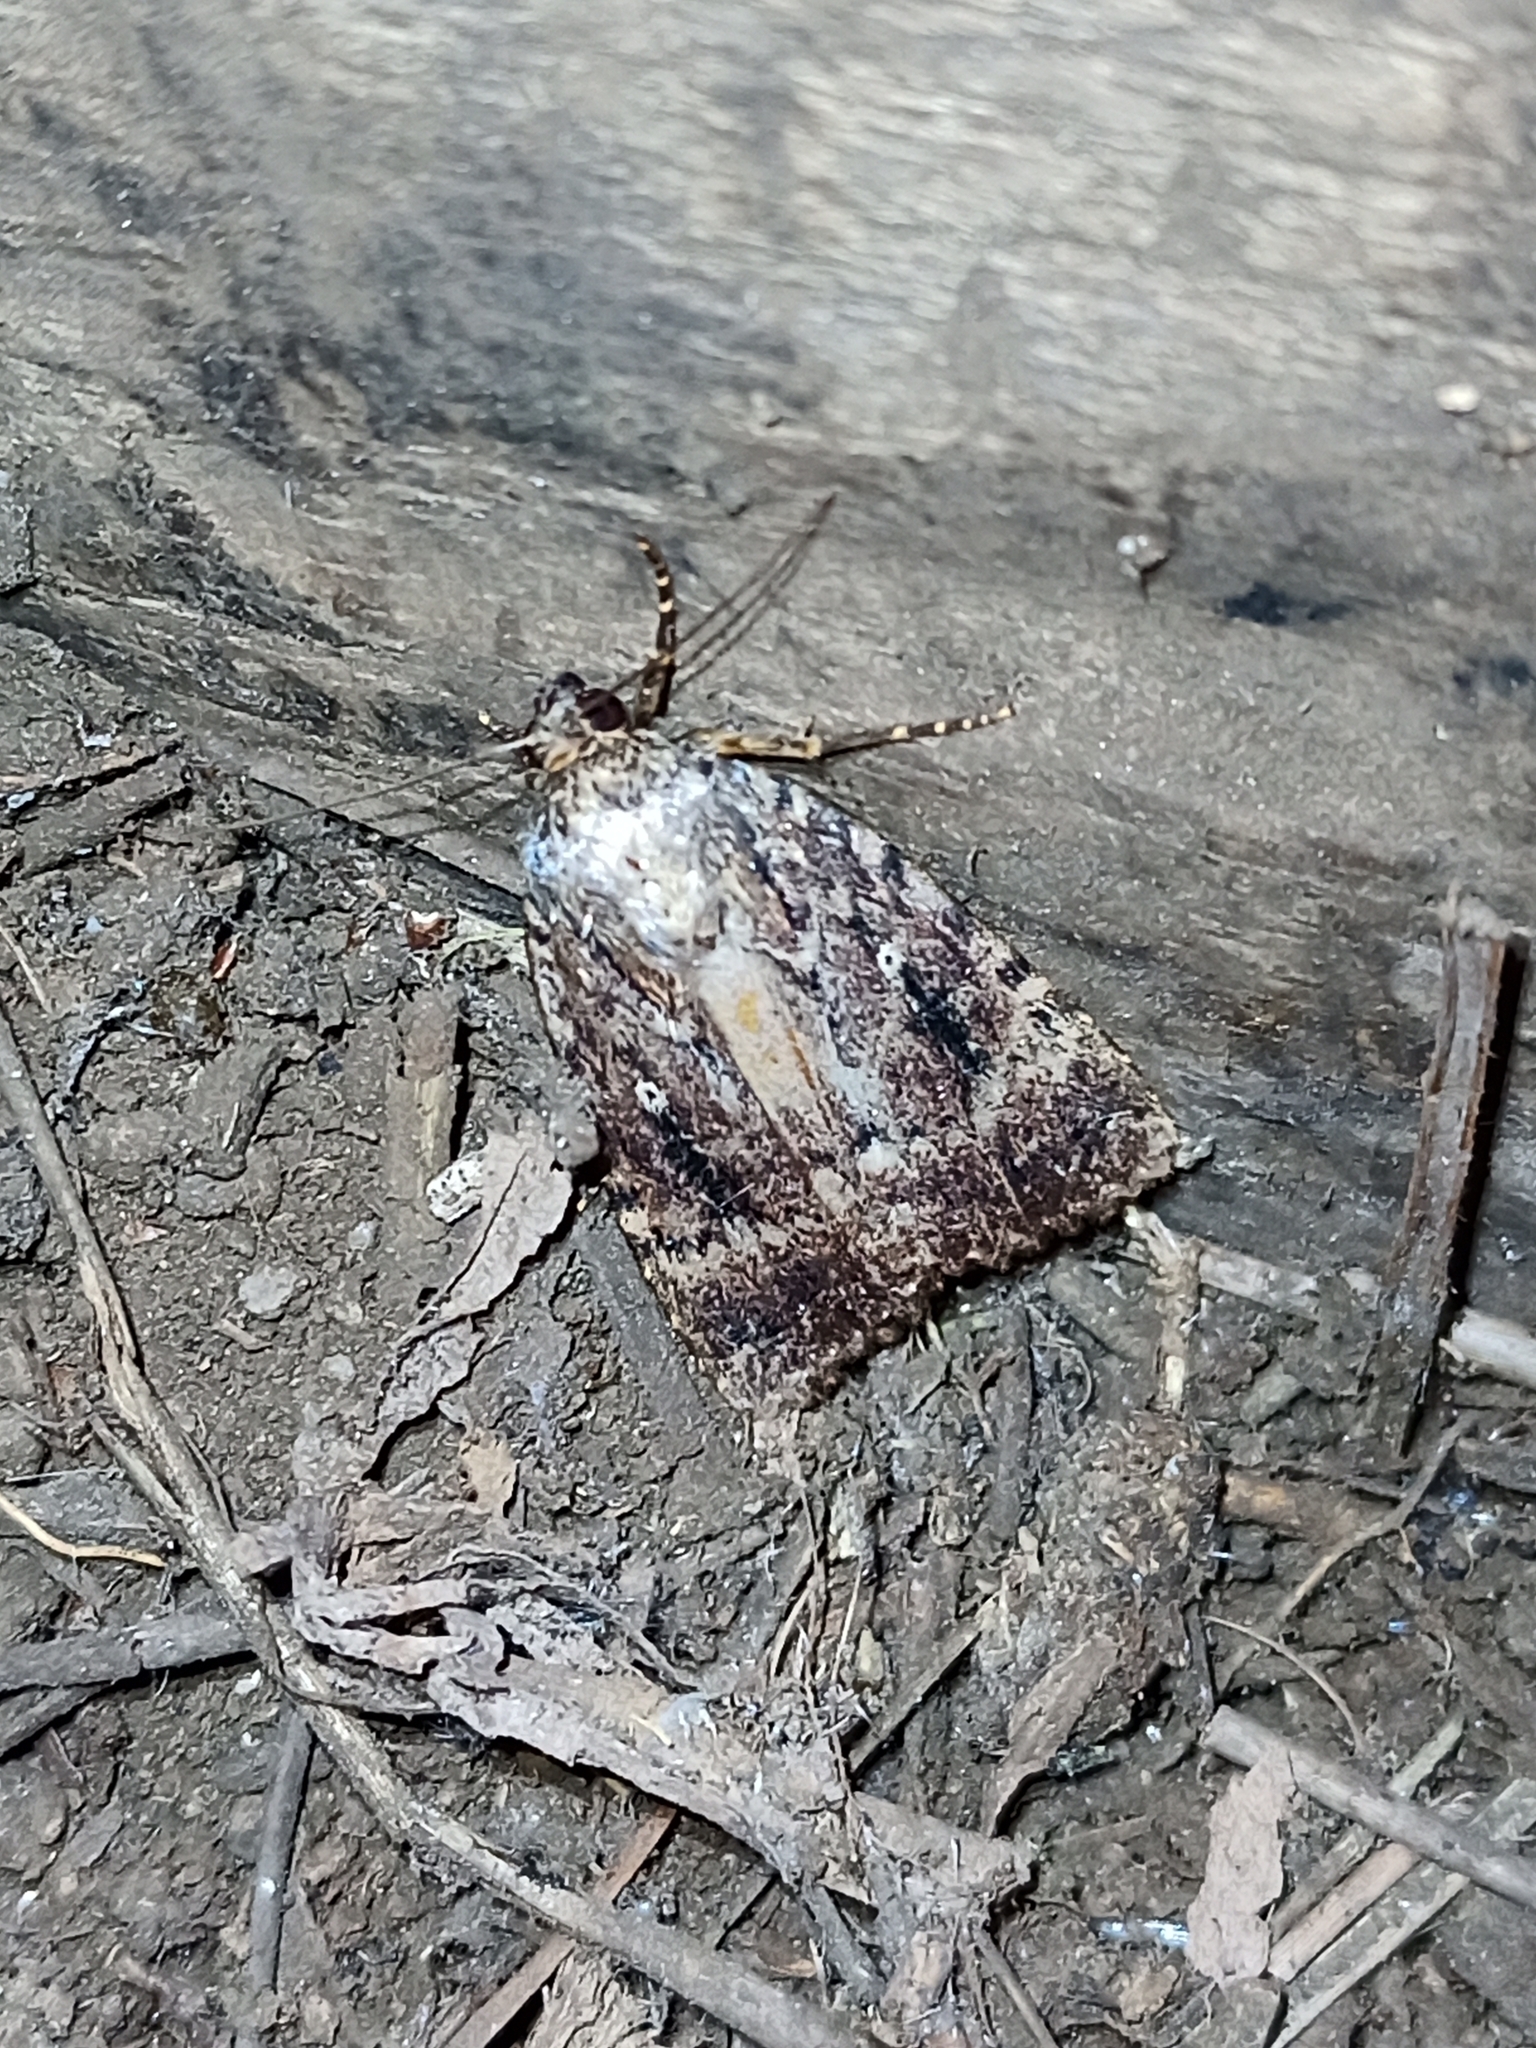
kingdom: Animalia
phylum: Arthropoda
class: Insecta
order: Lepidoptera
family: Noctuidae
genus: Amphipyra
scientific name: Amphipyra pyramidea
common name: Copper underwing
